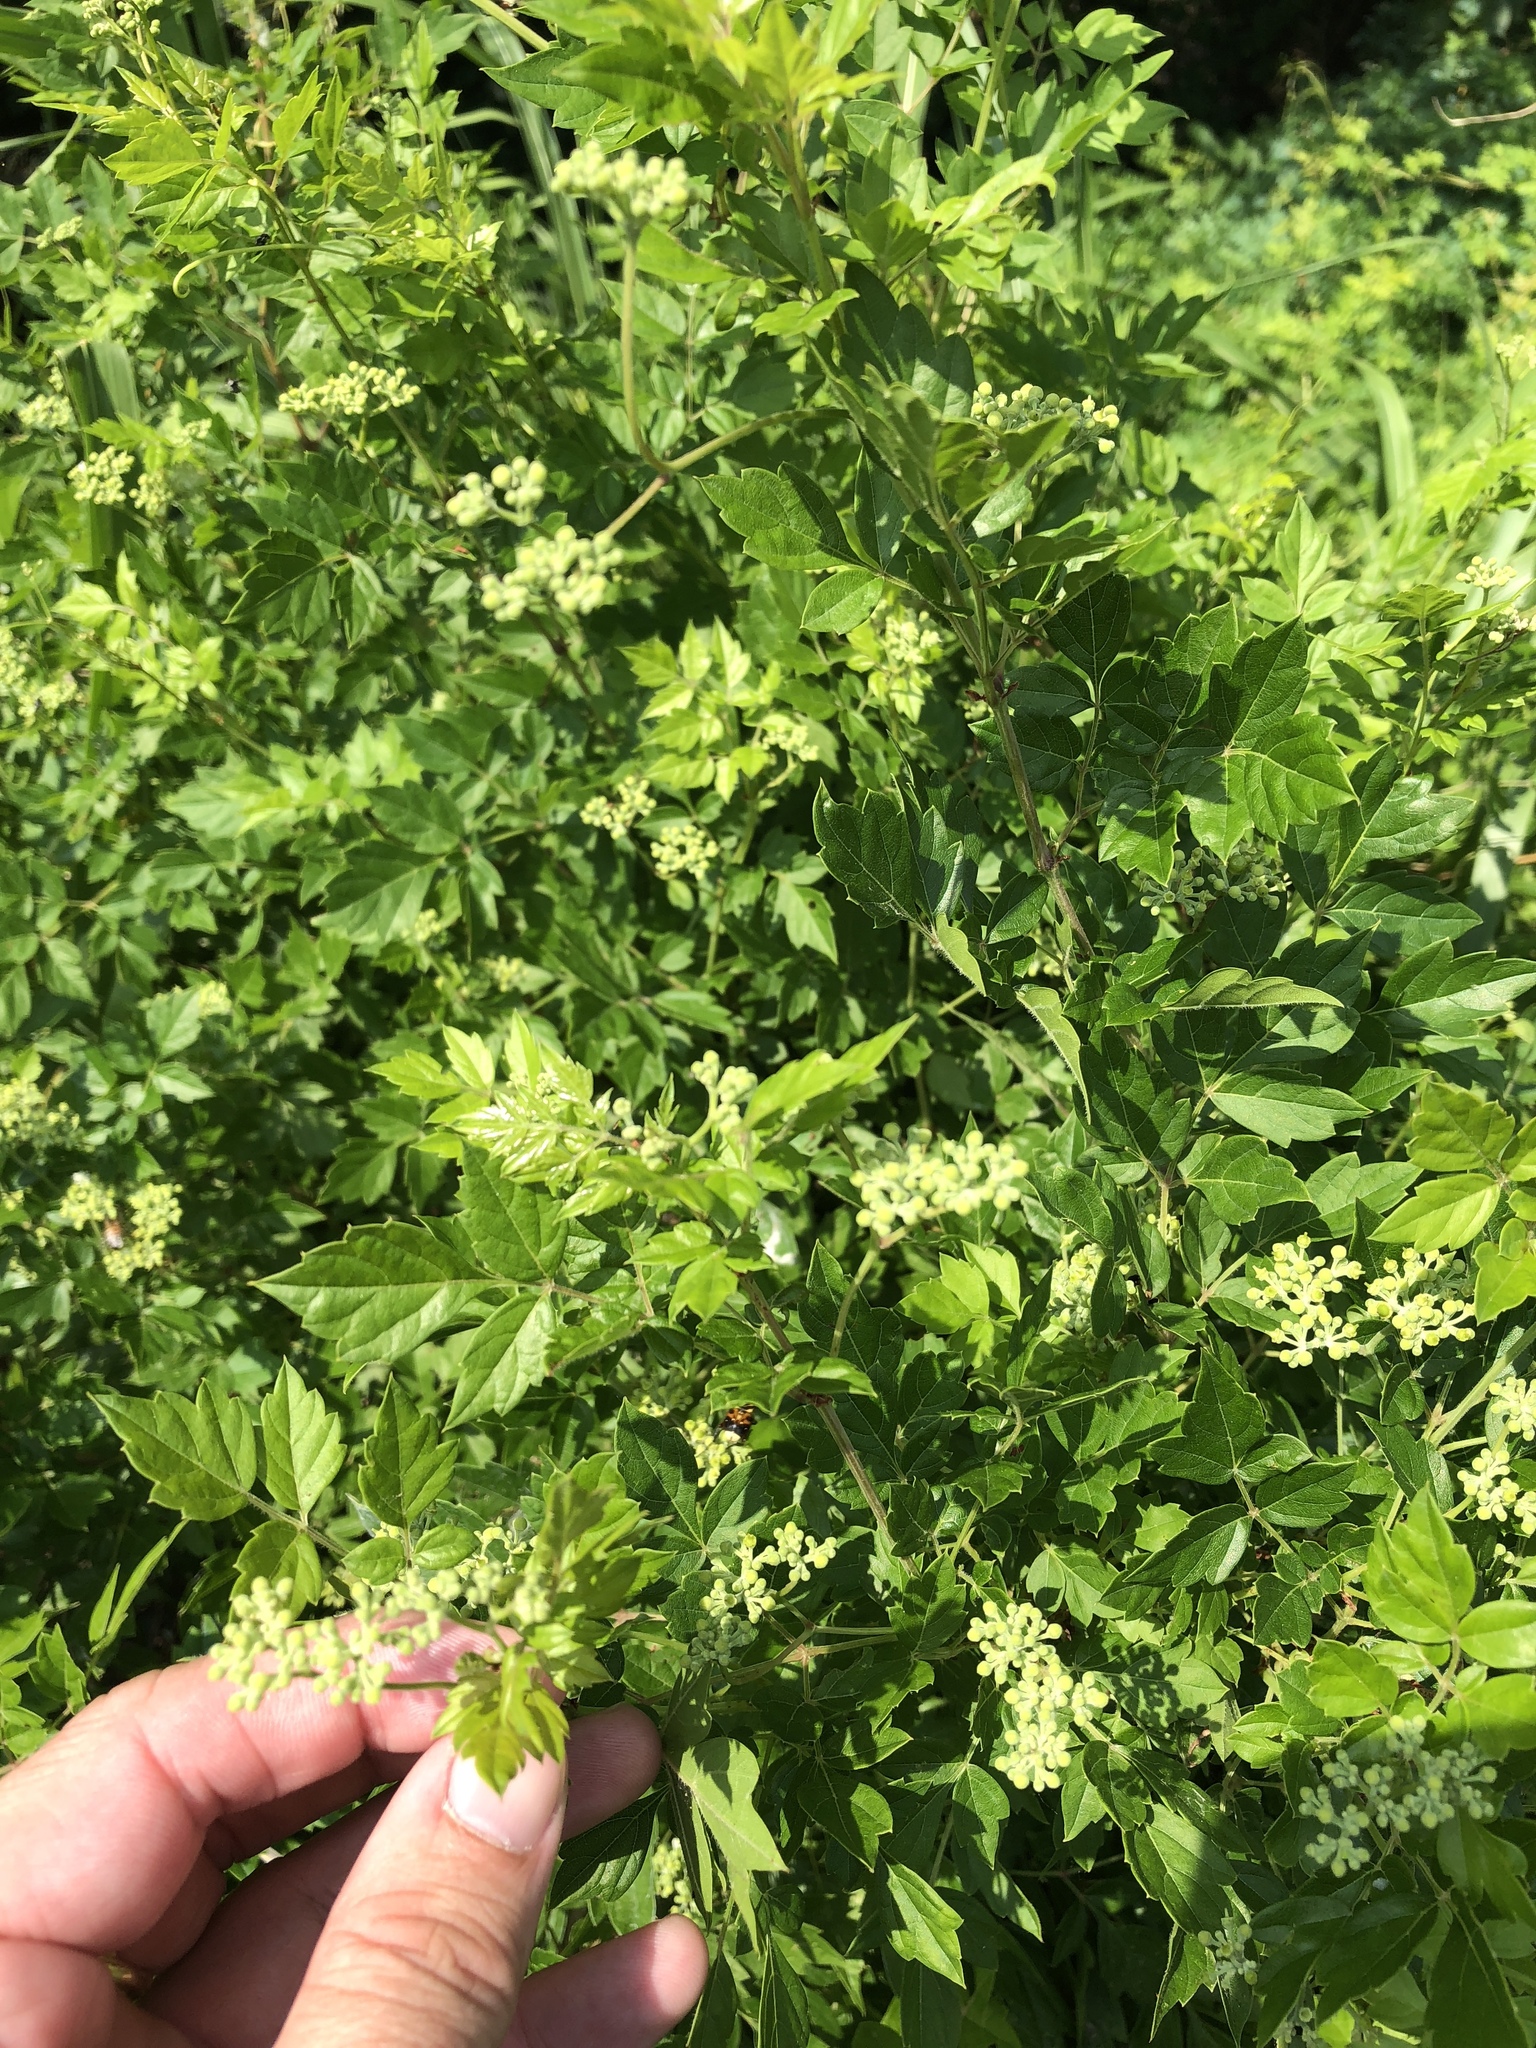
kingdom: Plantae
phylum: Tracheophyta
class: Magnoliopsida
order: Vitales
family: Vitaceae
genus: Nekemias
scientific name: Nekemias arborea
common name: Peppervine
